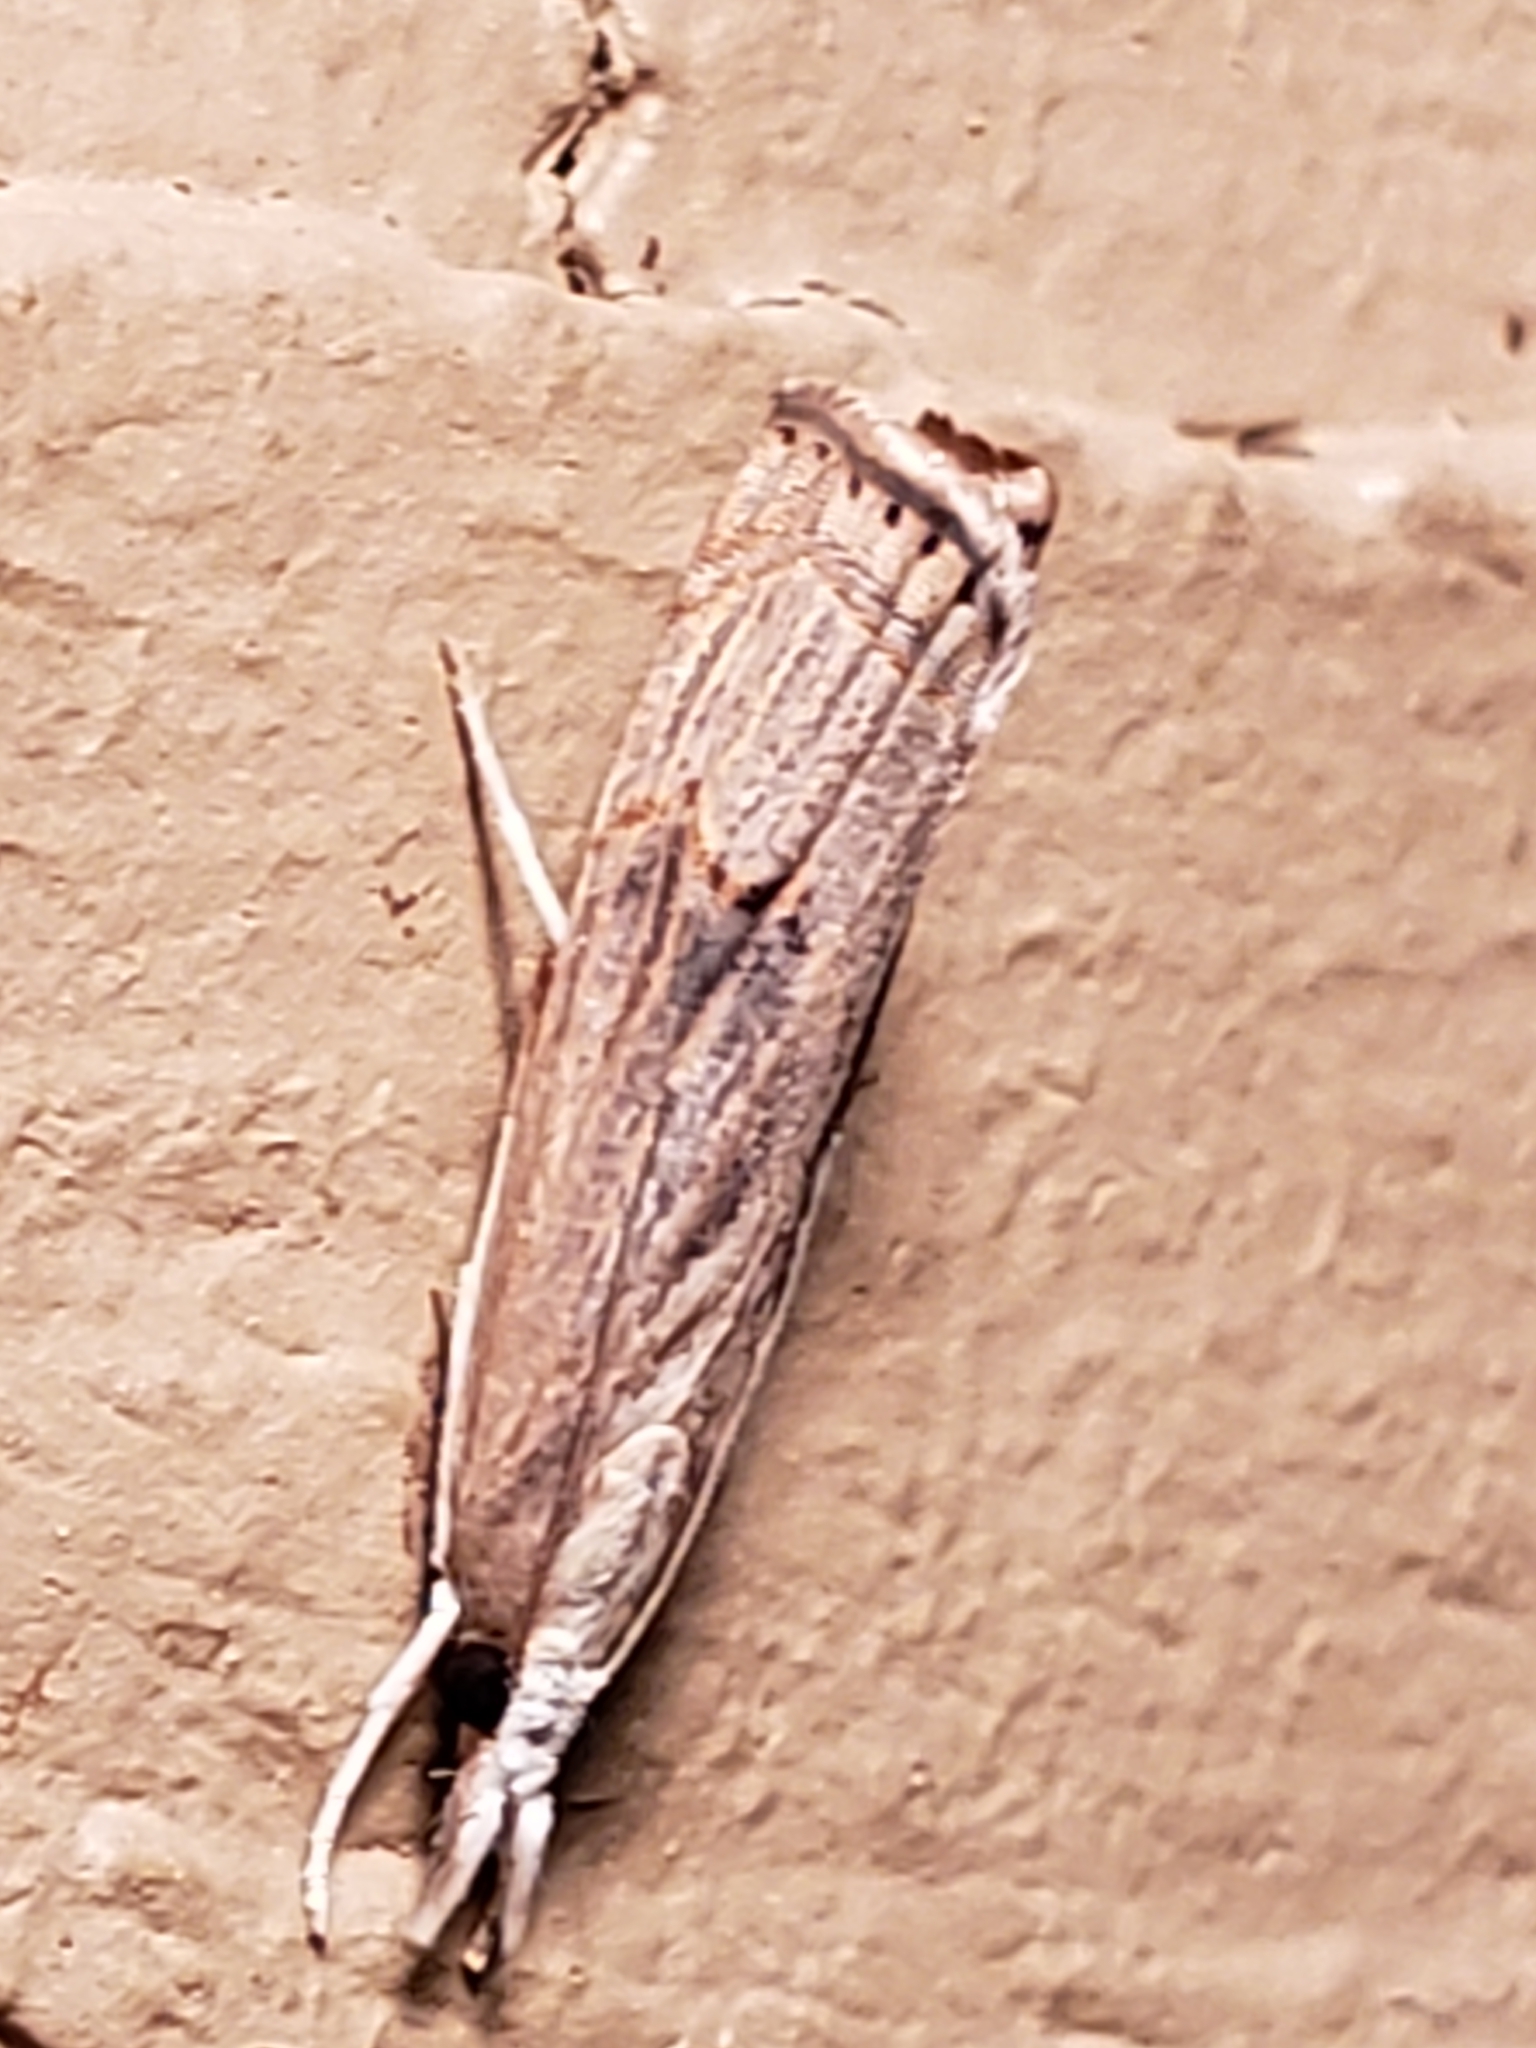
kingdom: Animalia
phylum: Arthropoda
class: Insecta
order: Lepidoptera
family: Crambidae
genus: Parapediasia
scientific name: Parapediasia teterellus
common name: Bluegrass webworm moth
